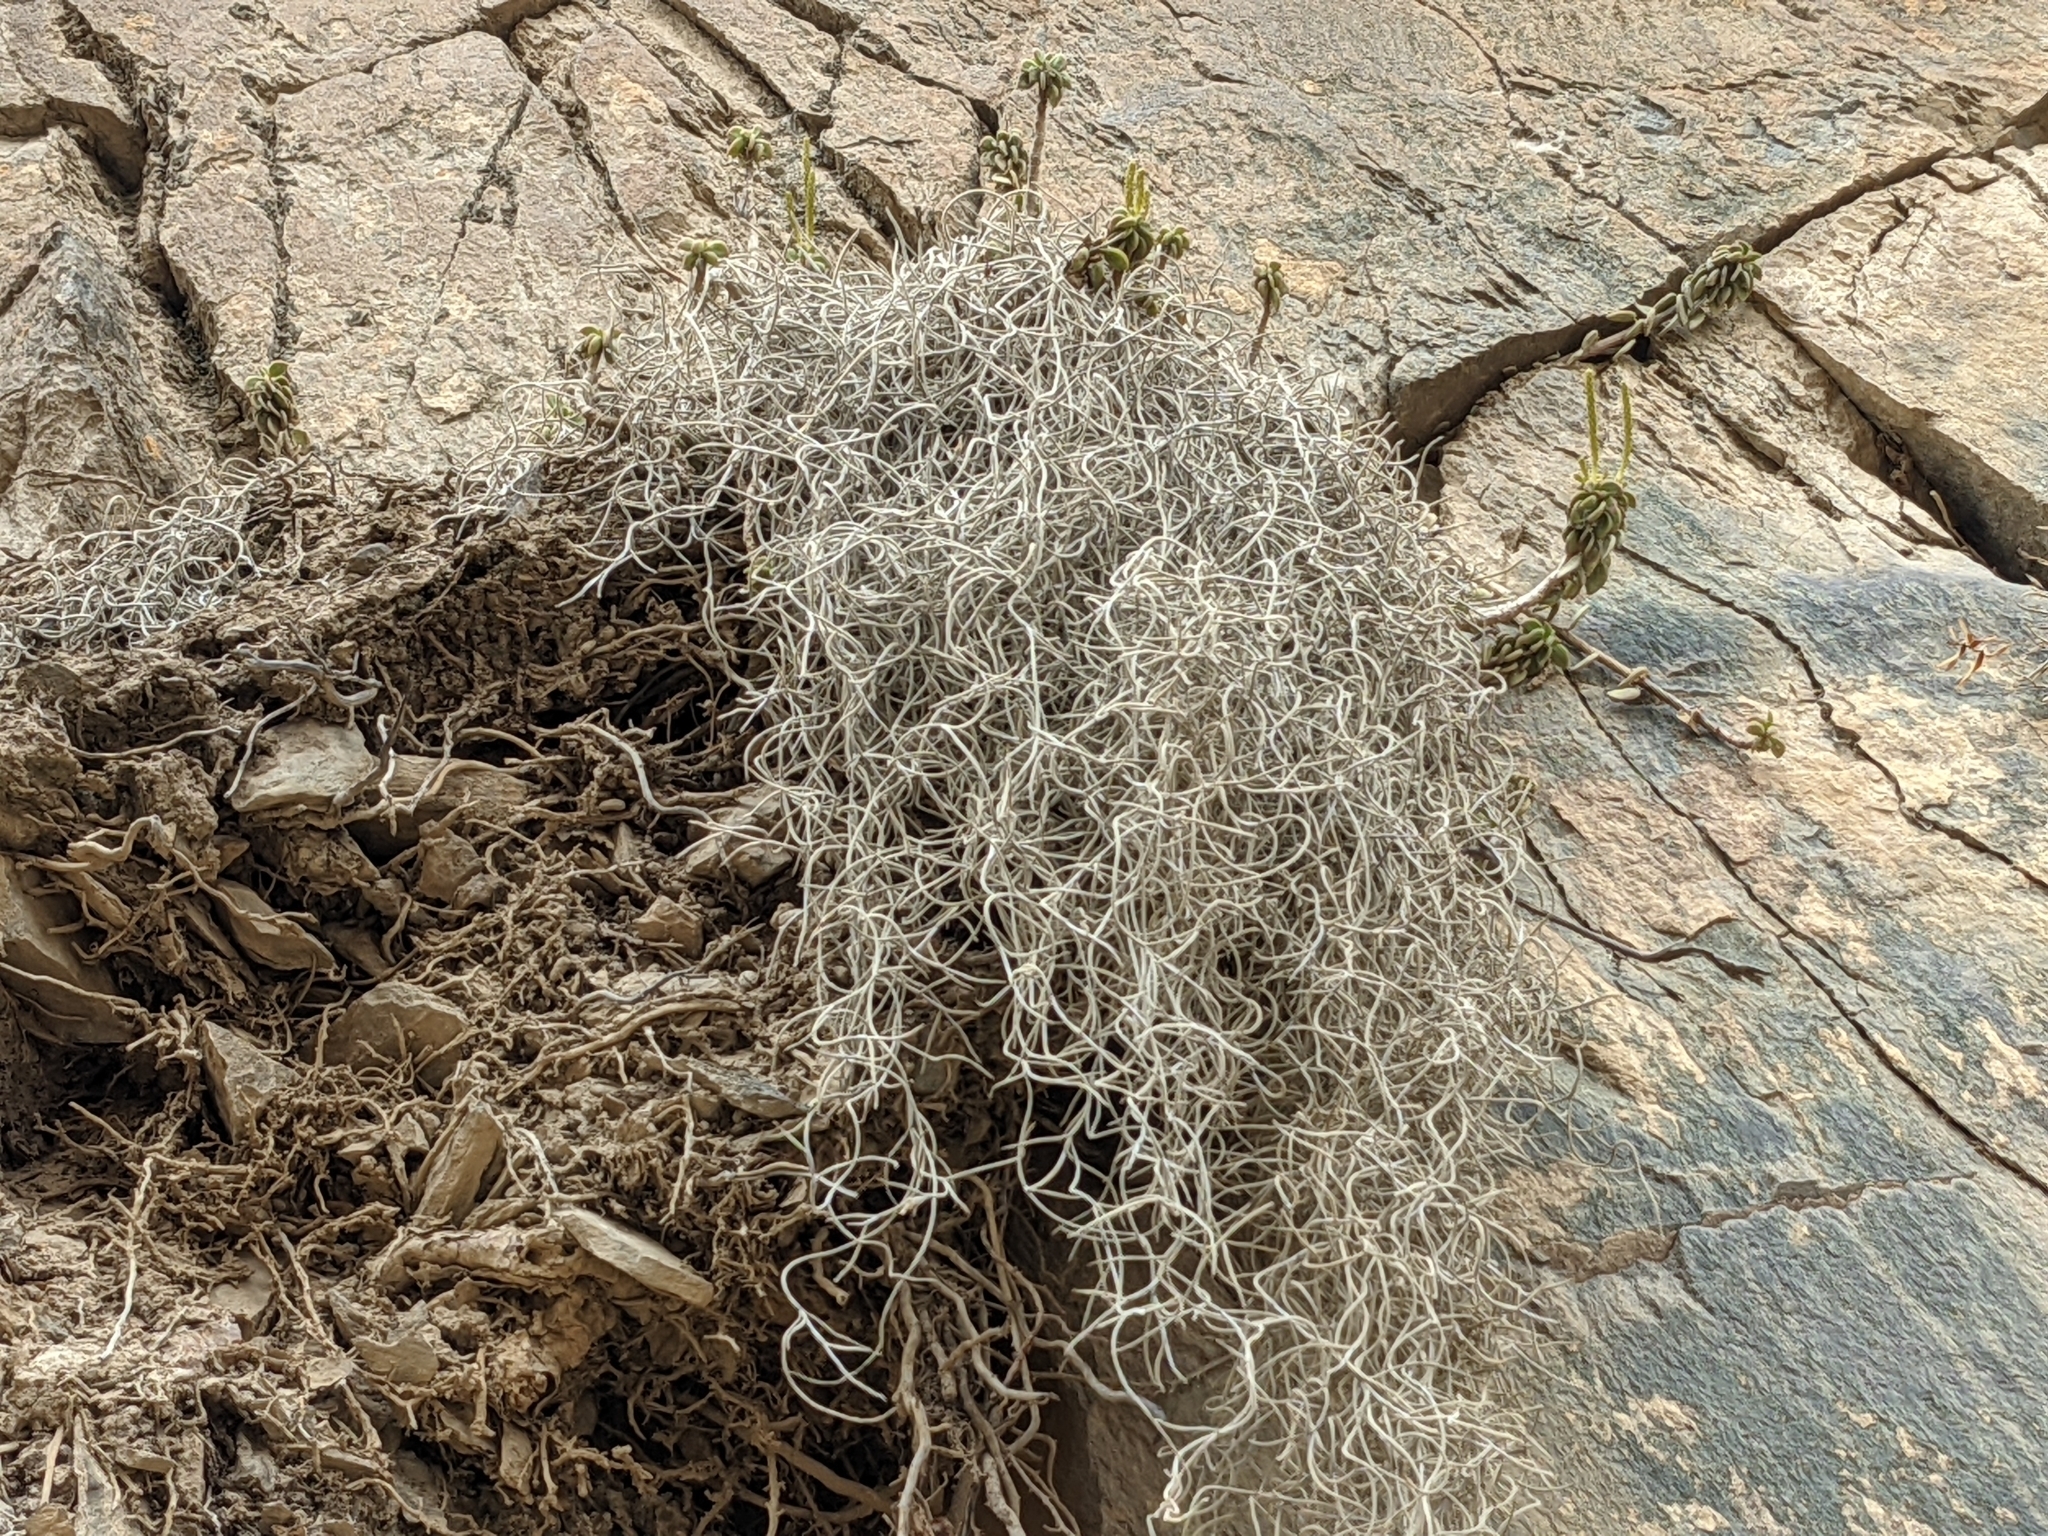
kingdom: Plantae
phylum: Tracheophyta
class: Liliopsida
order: Poales
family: Bromeliaceae
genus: Tillandsia
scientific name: Tillandsia usneoides
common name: Spanish moss
